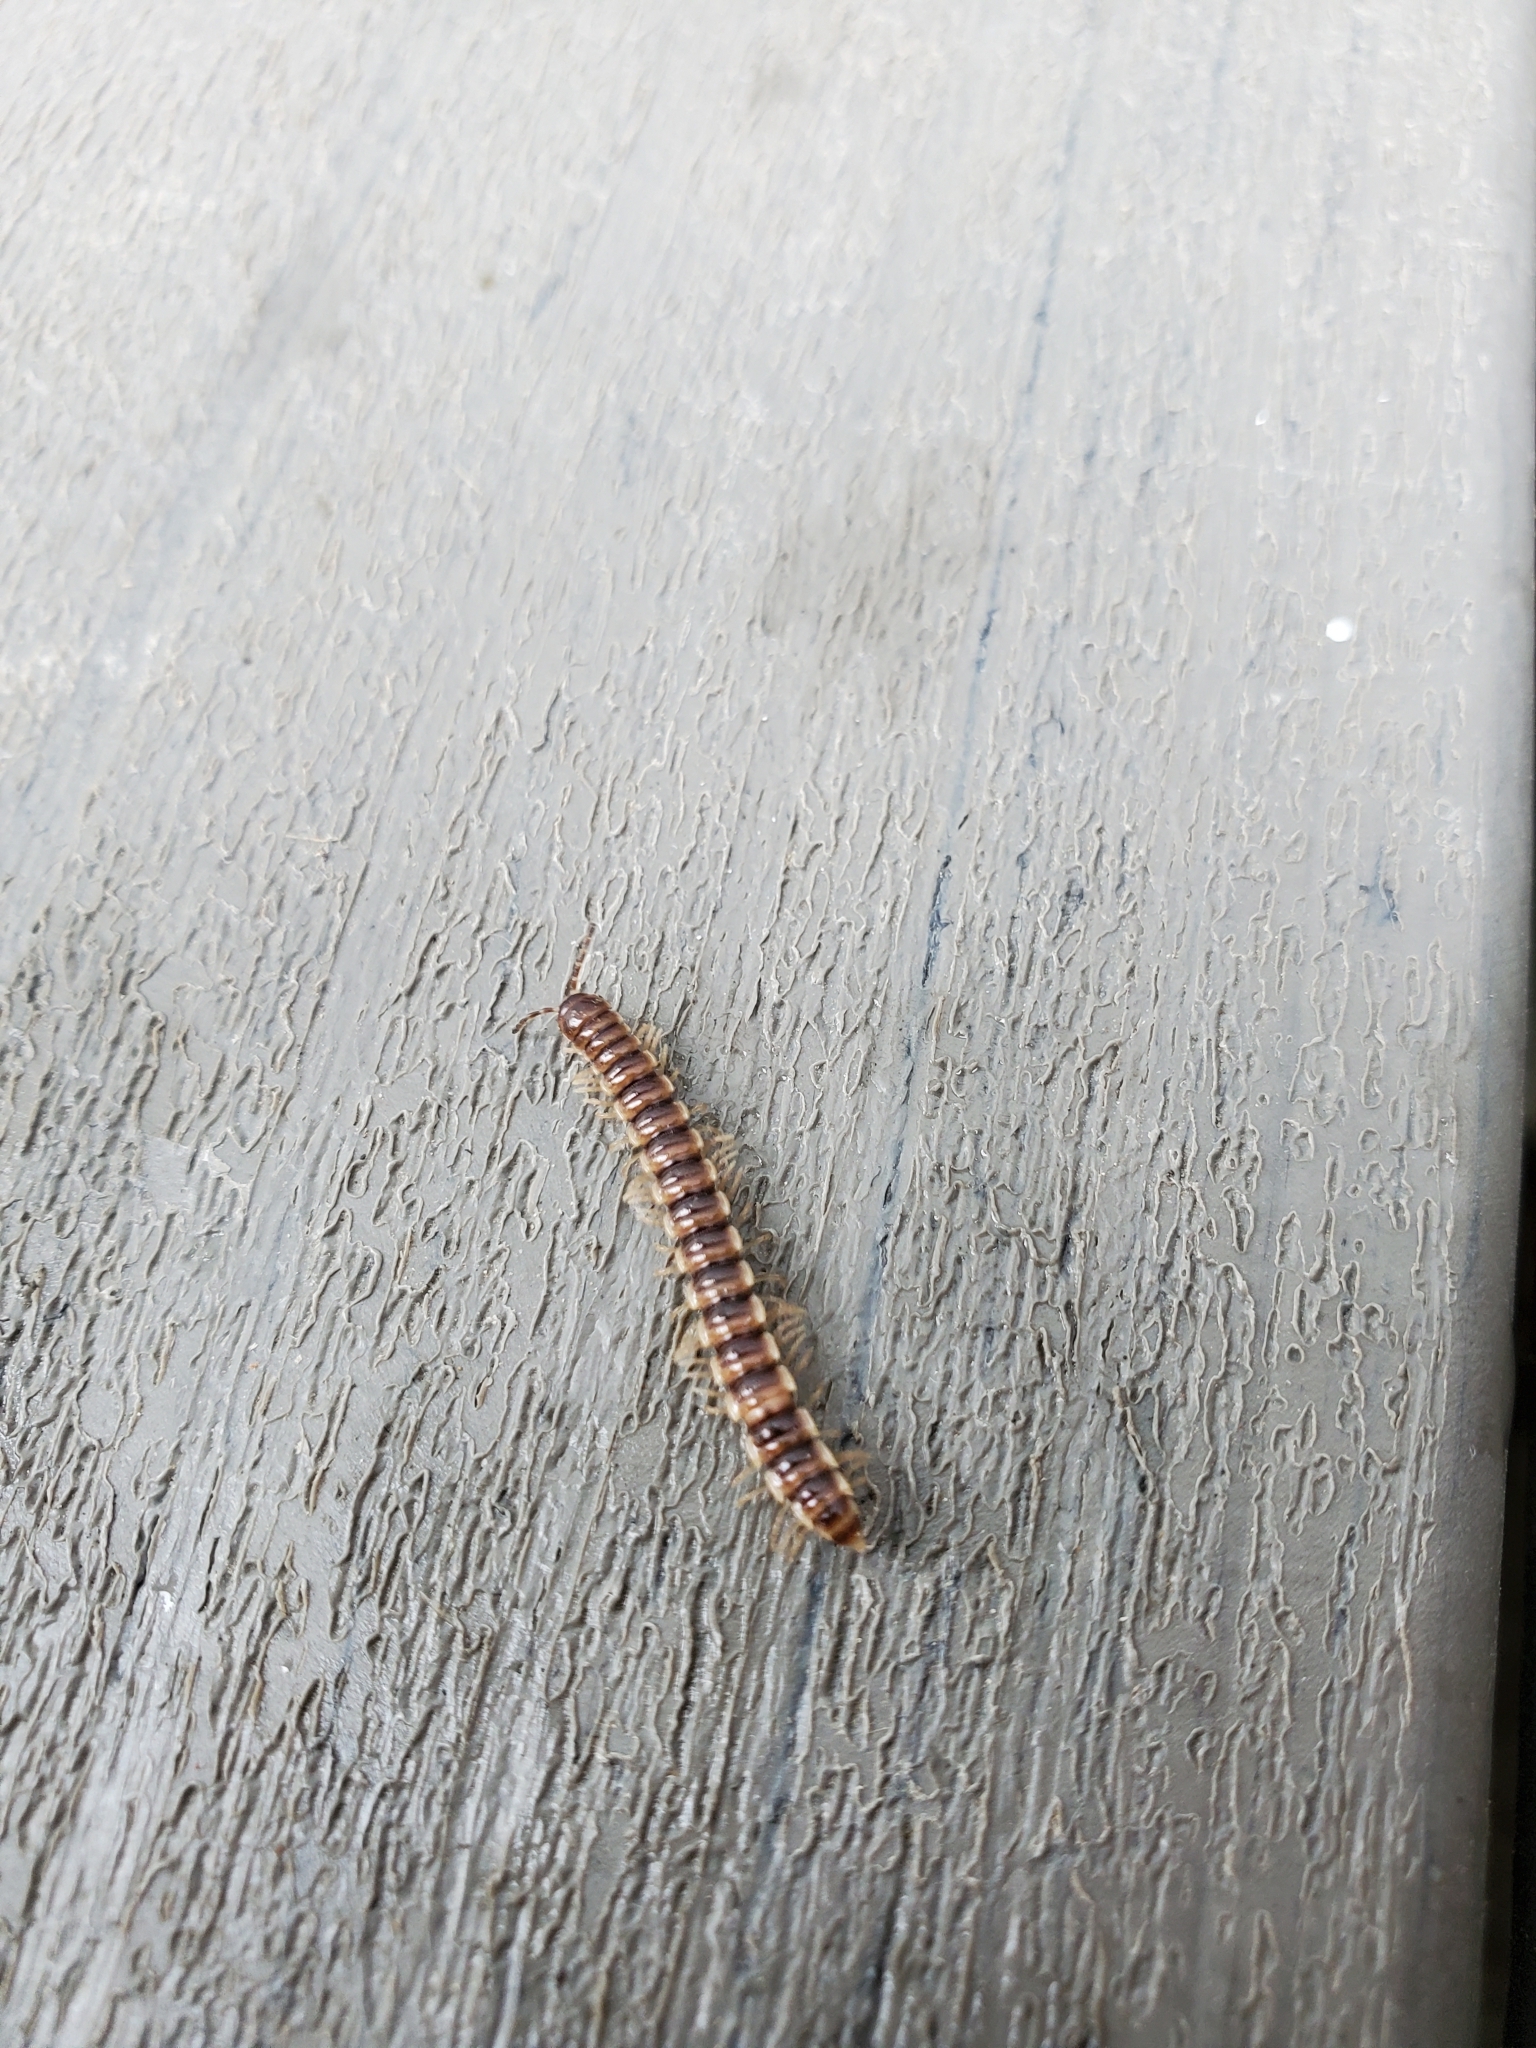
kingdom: Animalia
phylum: Arthropoda
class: Diplopoda
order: Polydesmida
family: Paradoxosomatidae
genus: Oxidus
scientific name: Oxidus gracilis
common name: Greenhouse millipede
